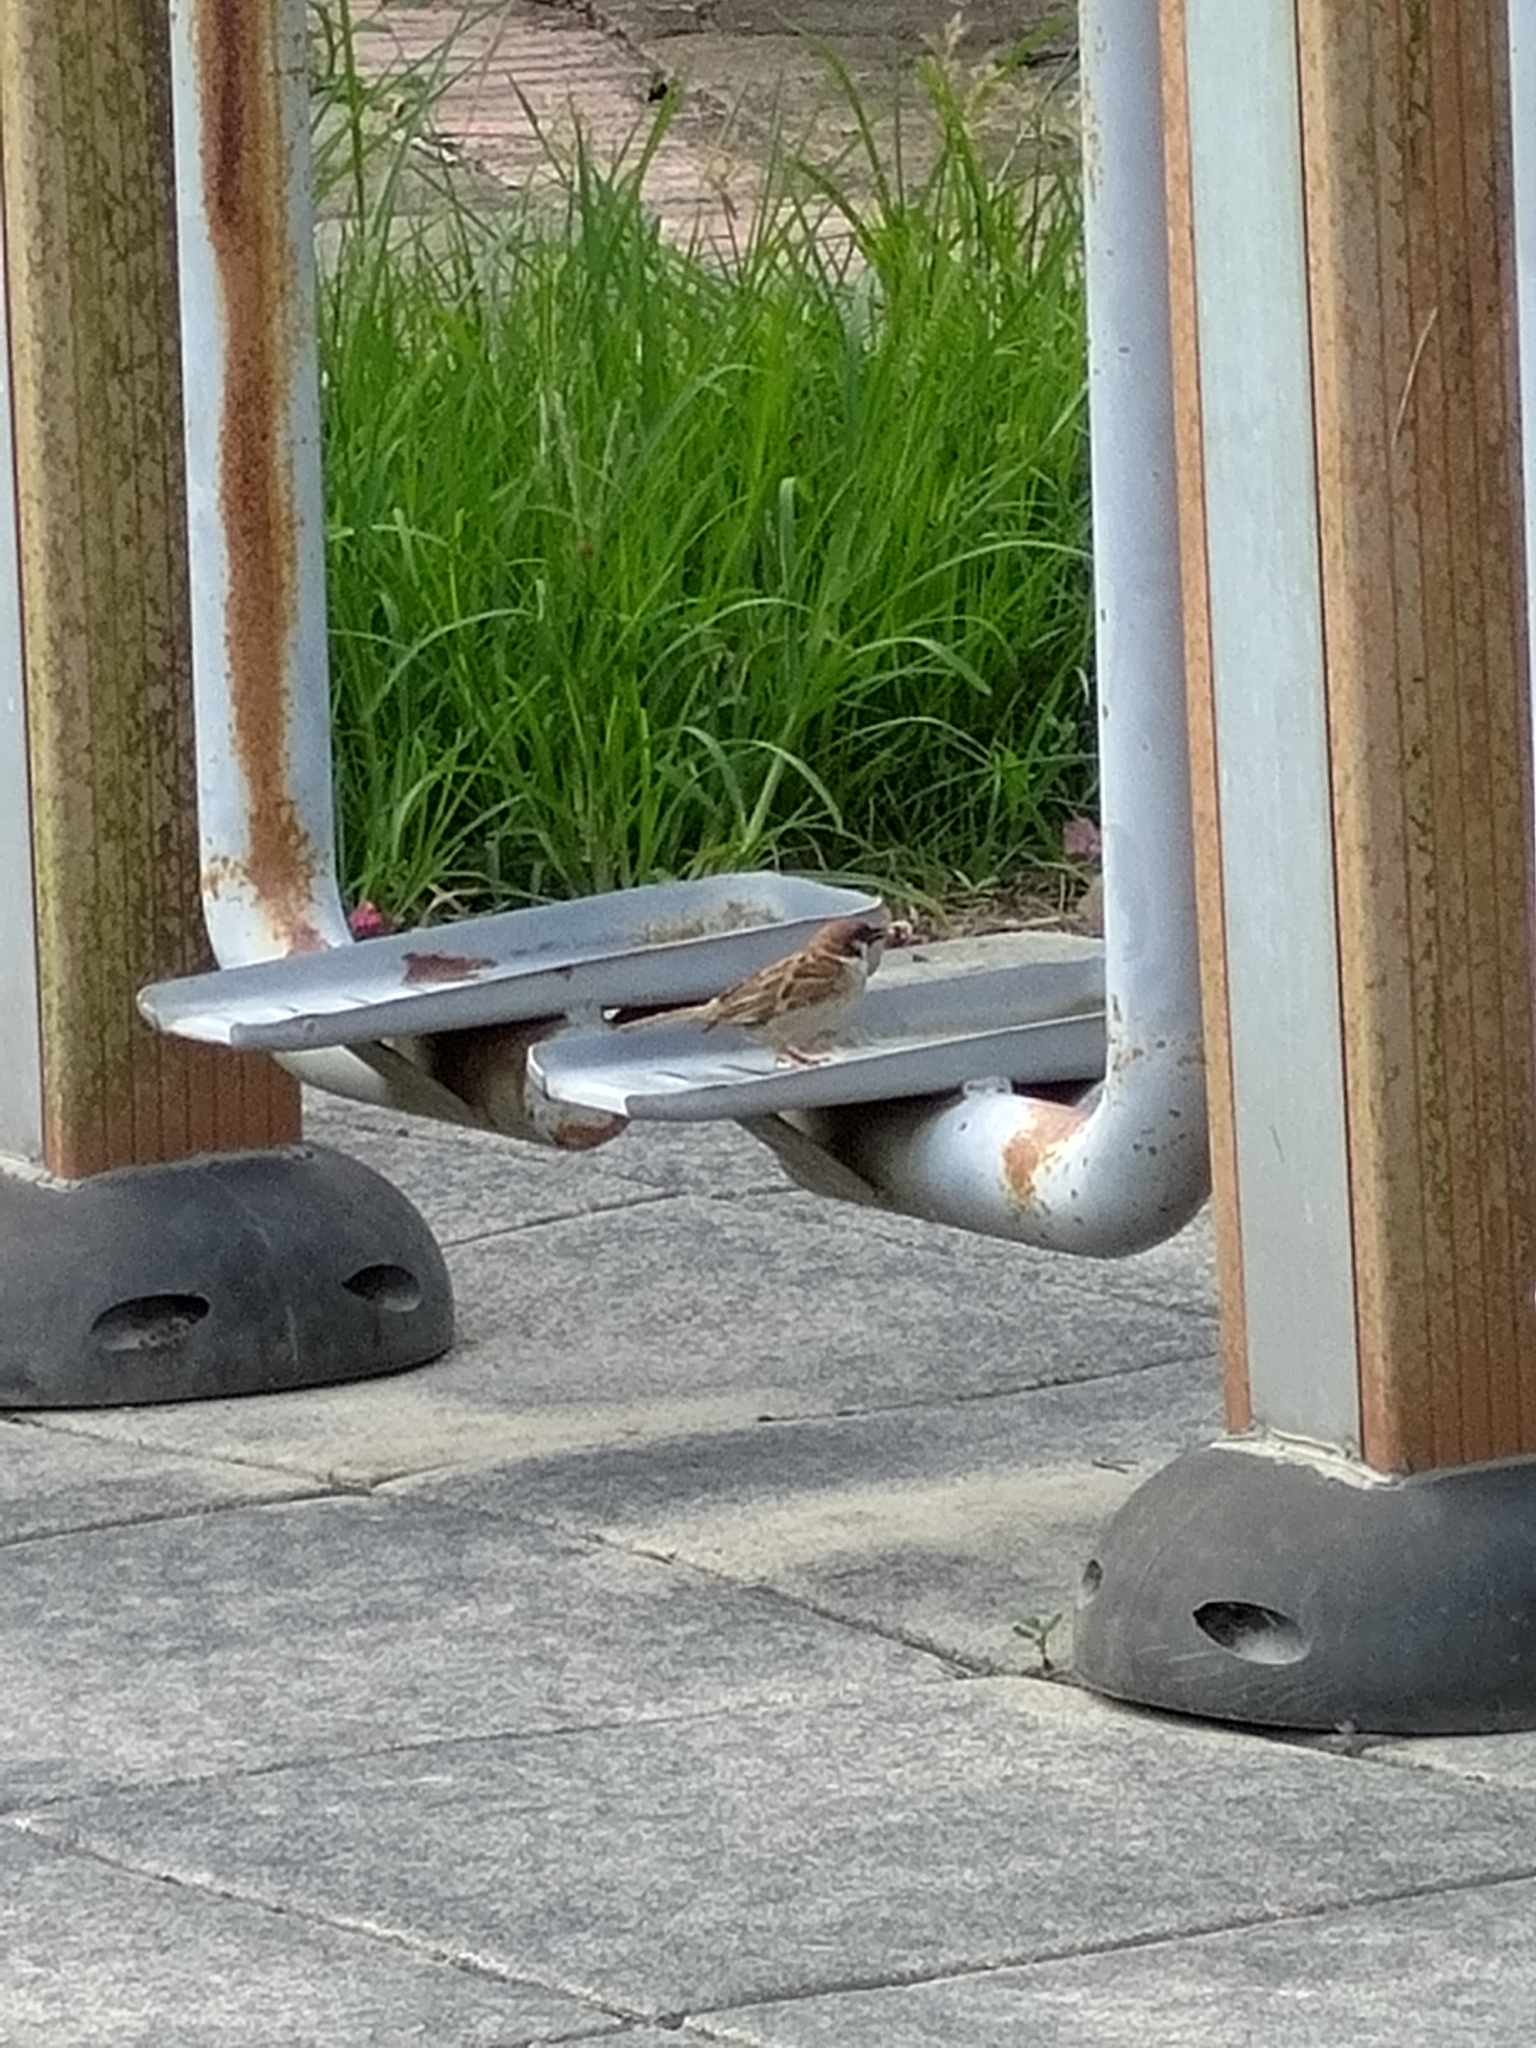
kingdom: Animalia
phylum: Chordata
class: Aves
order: Passeriformes
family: Passeridae
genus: Passer
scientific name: Passer montanus
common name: Eurasian tree sparrow
